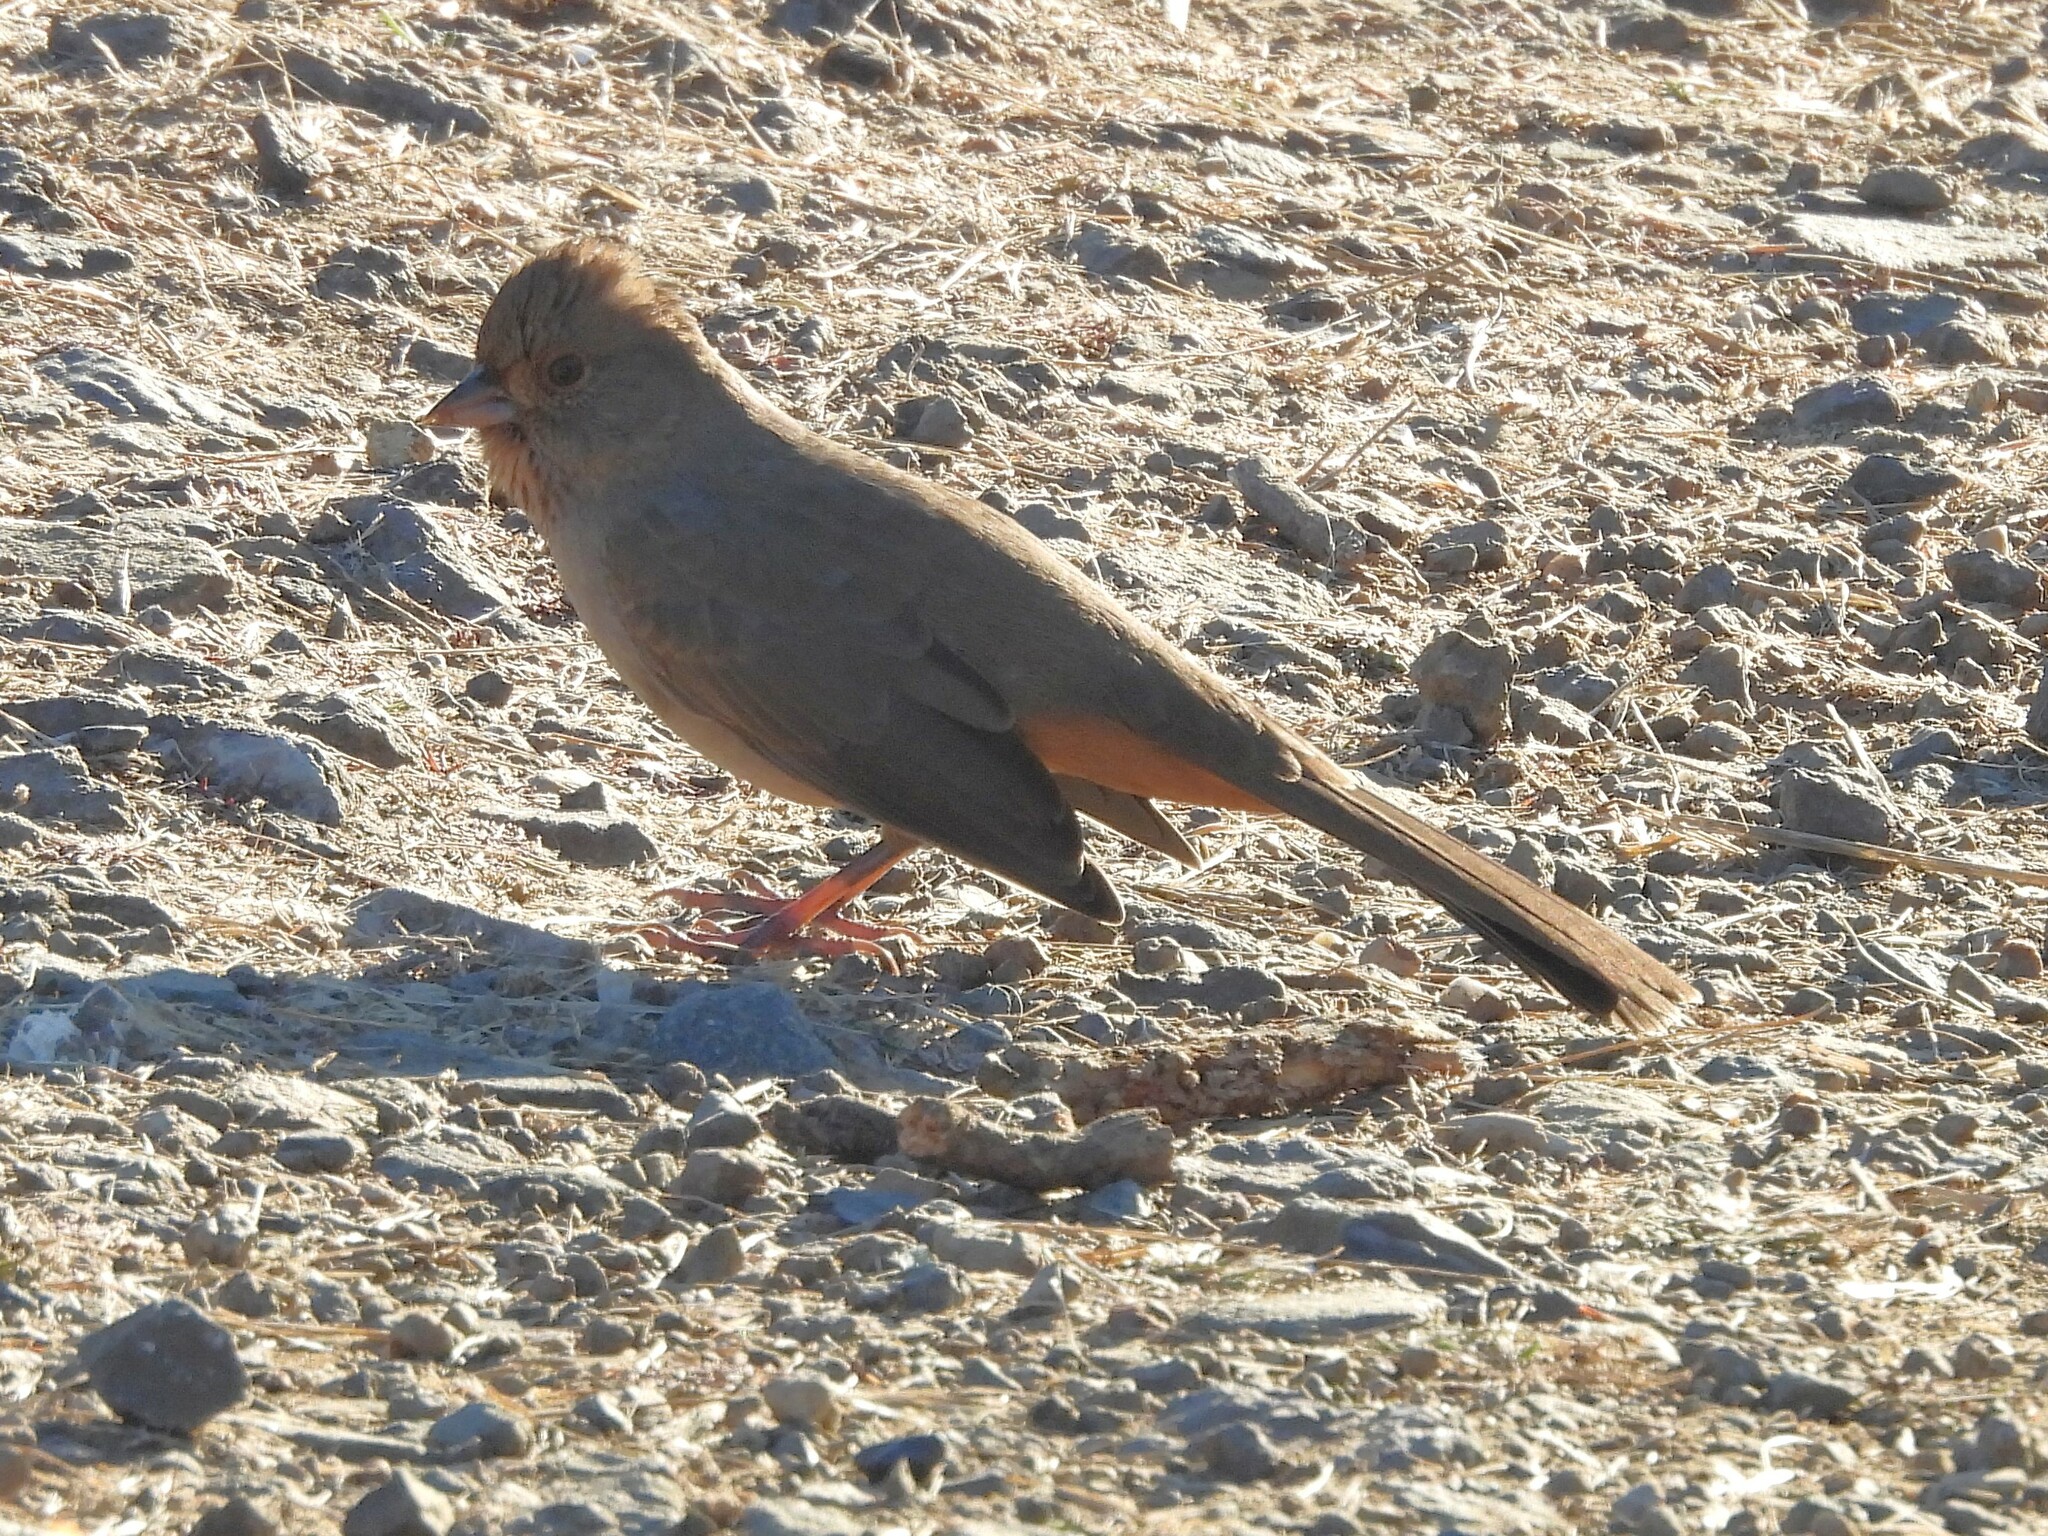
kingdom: Animalia
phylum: Chordata
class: Aves
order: Passeriformes
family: Passerellidae
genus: Melozone
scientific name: Melozone crissalis
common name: California towhee
